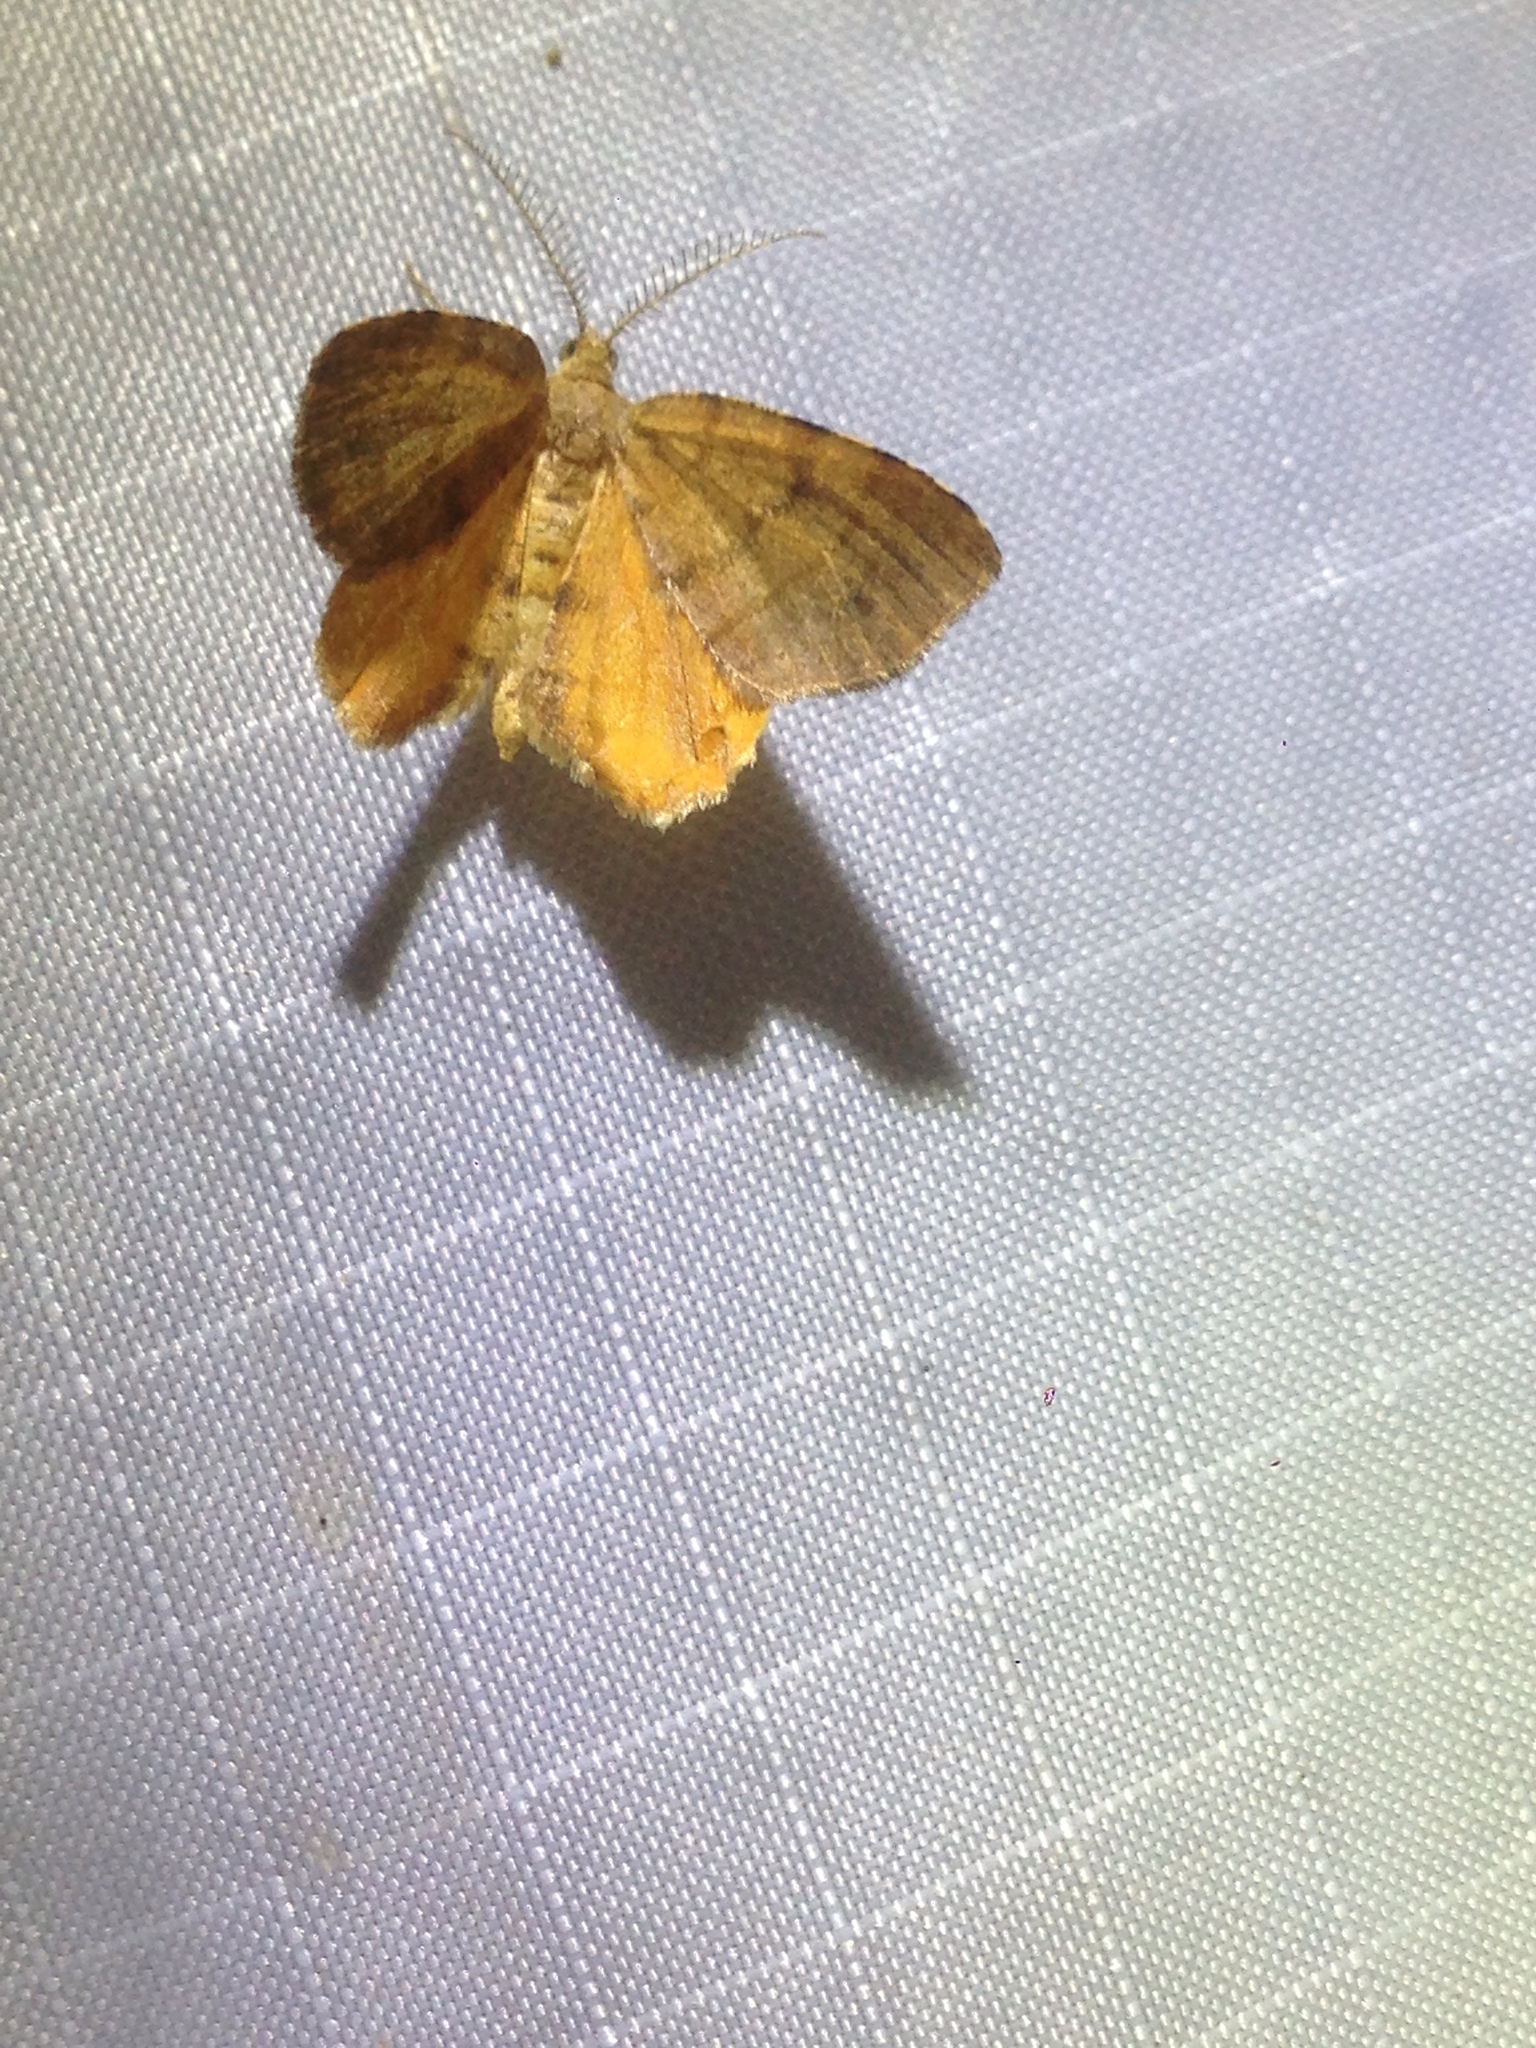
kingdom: Animalia
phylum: Arthropoda
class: Insecta
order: Lepidoptera
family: Geometridae
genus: Mellilla
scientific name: Mellilla xanthometata
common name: Orange wing moth
